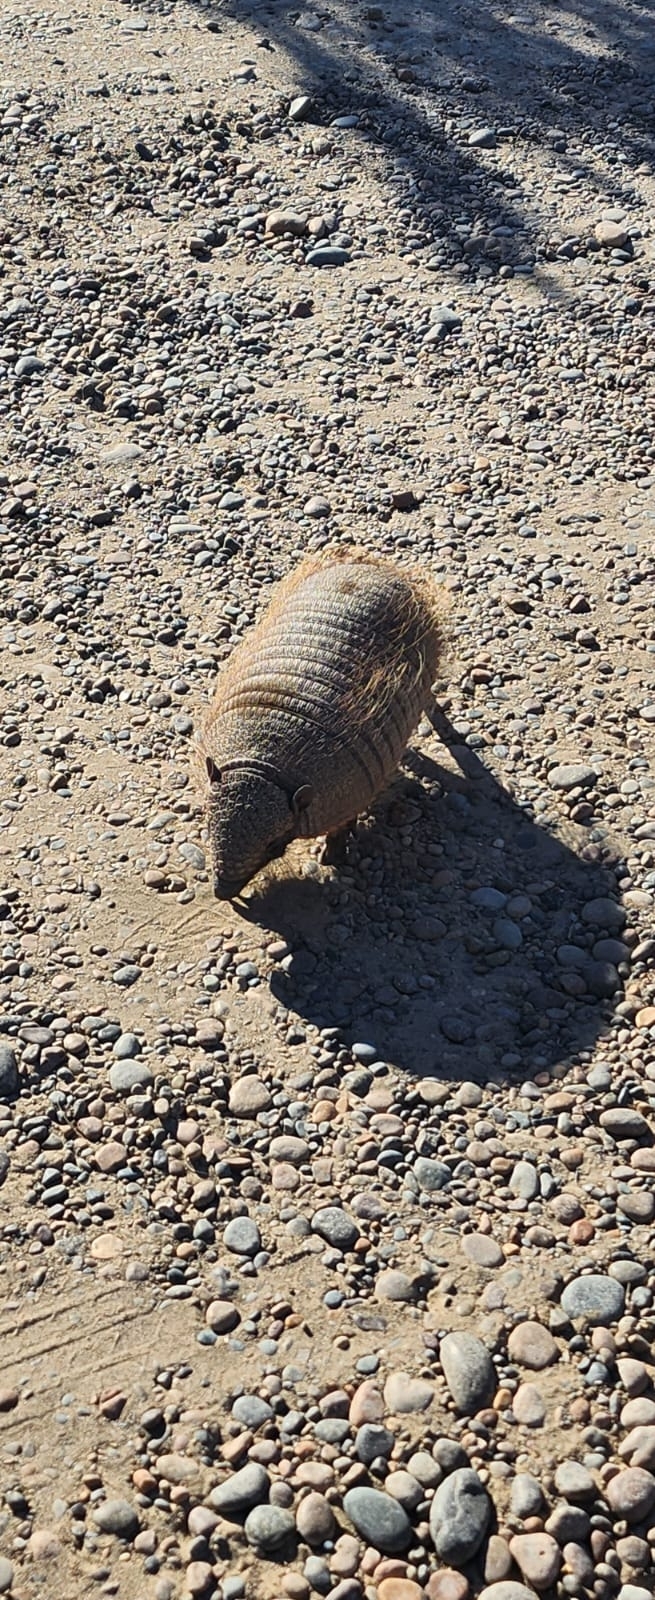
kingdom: Animalia
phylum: Chordata
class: Mammalia
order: Cingulata
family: Dasypodidae
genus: Chaetophractus
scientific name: Chaetophractus villosus
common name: Big hairy armadillo
